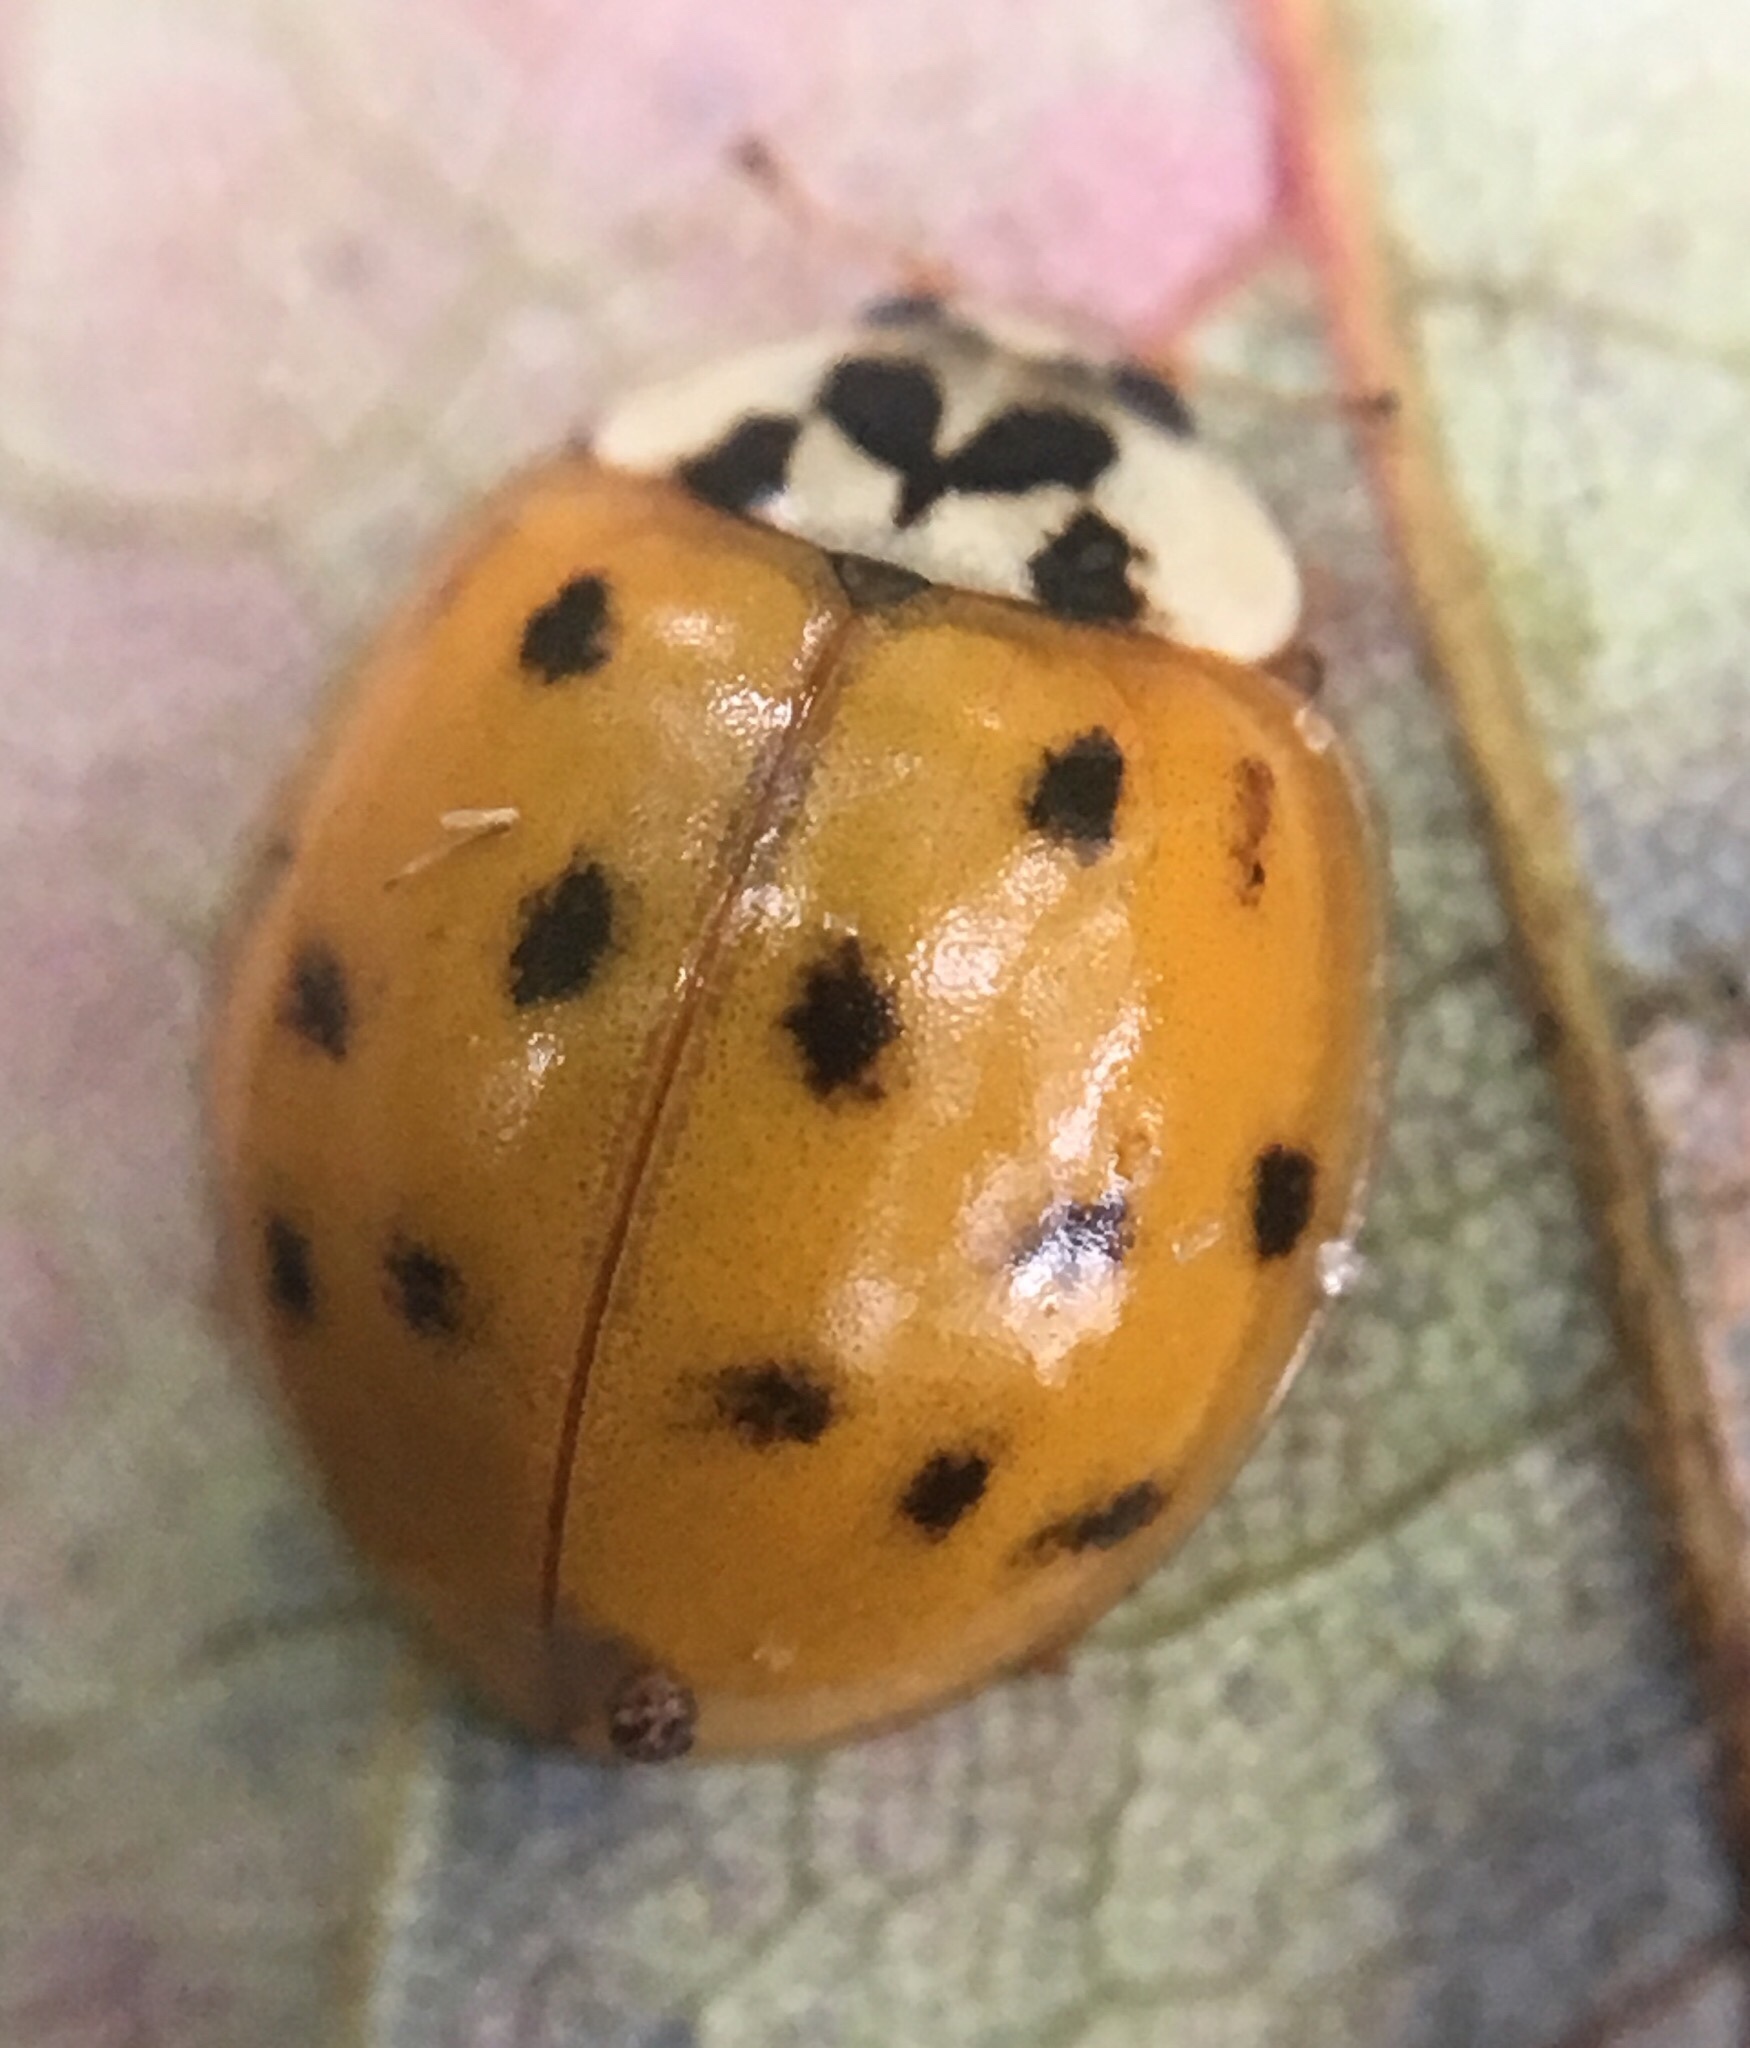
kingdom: Animalia
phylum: Arthropoda
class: Insecta
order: Coleoptera
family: Coccinellidae
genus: Harmonia
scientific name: Harmonia axyridis
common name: Harlequin ladybird
